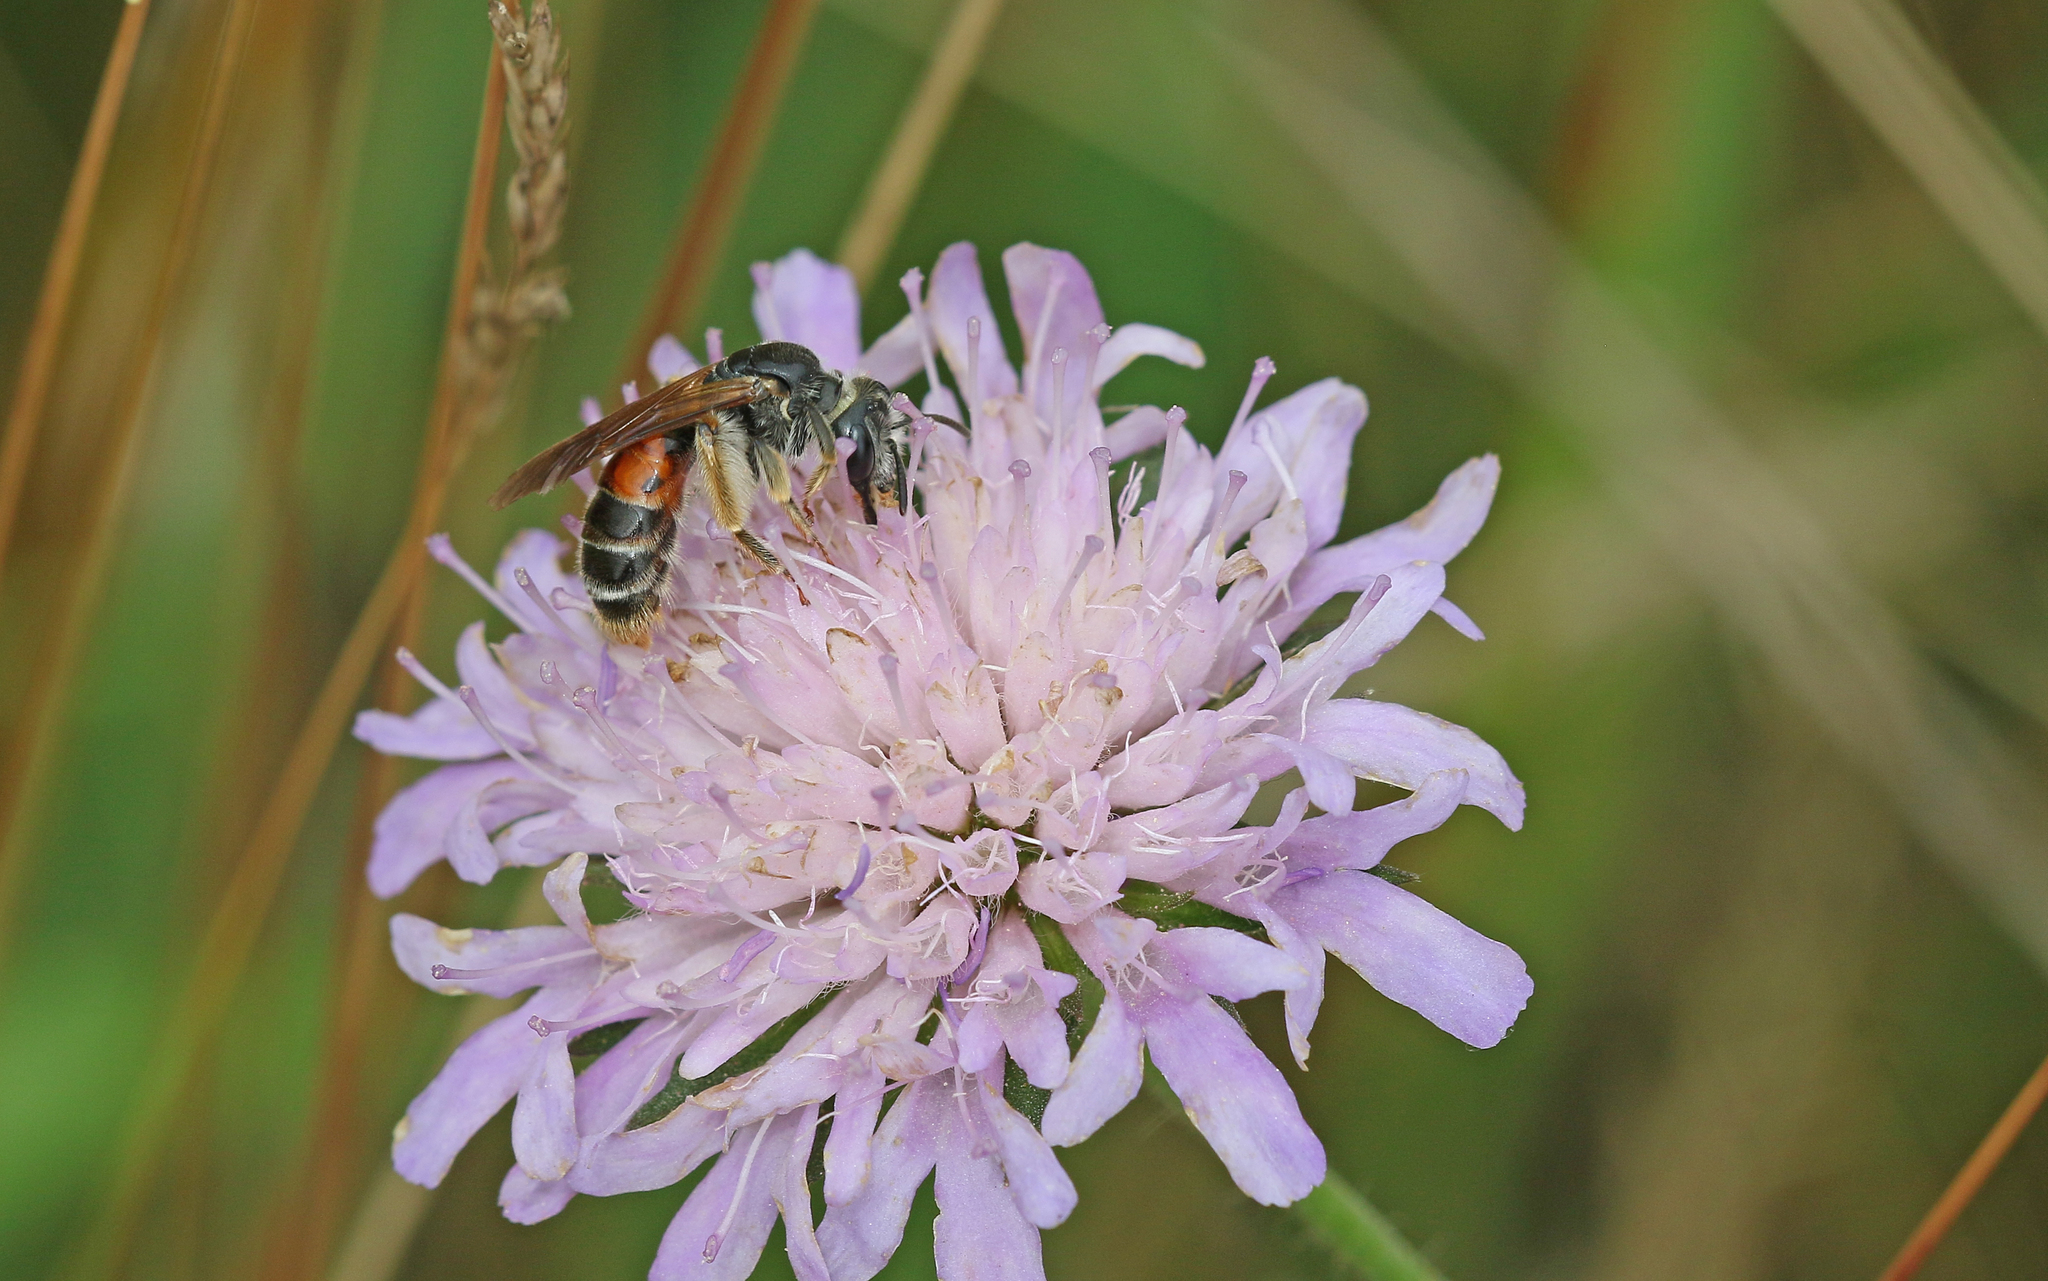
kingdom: Animalia
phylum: Arthropoda
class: Insecta
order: Hymenoptera
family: Andrenidae
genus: Andrena
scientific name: Andrena hattorfiana
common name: Large scabious mining bee
